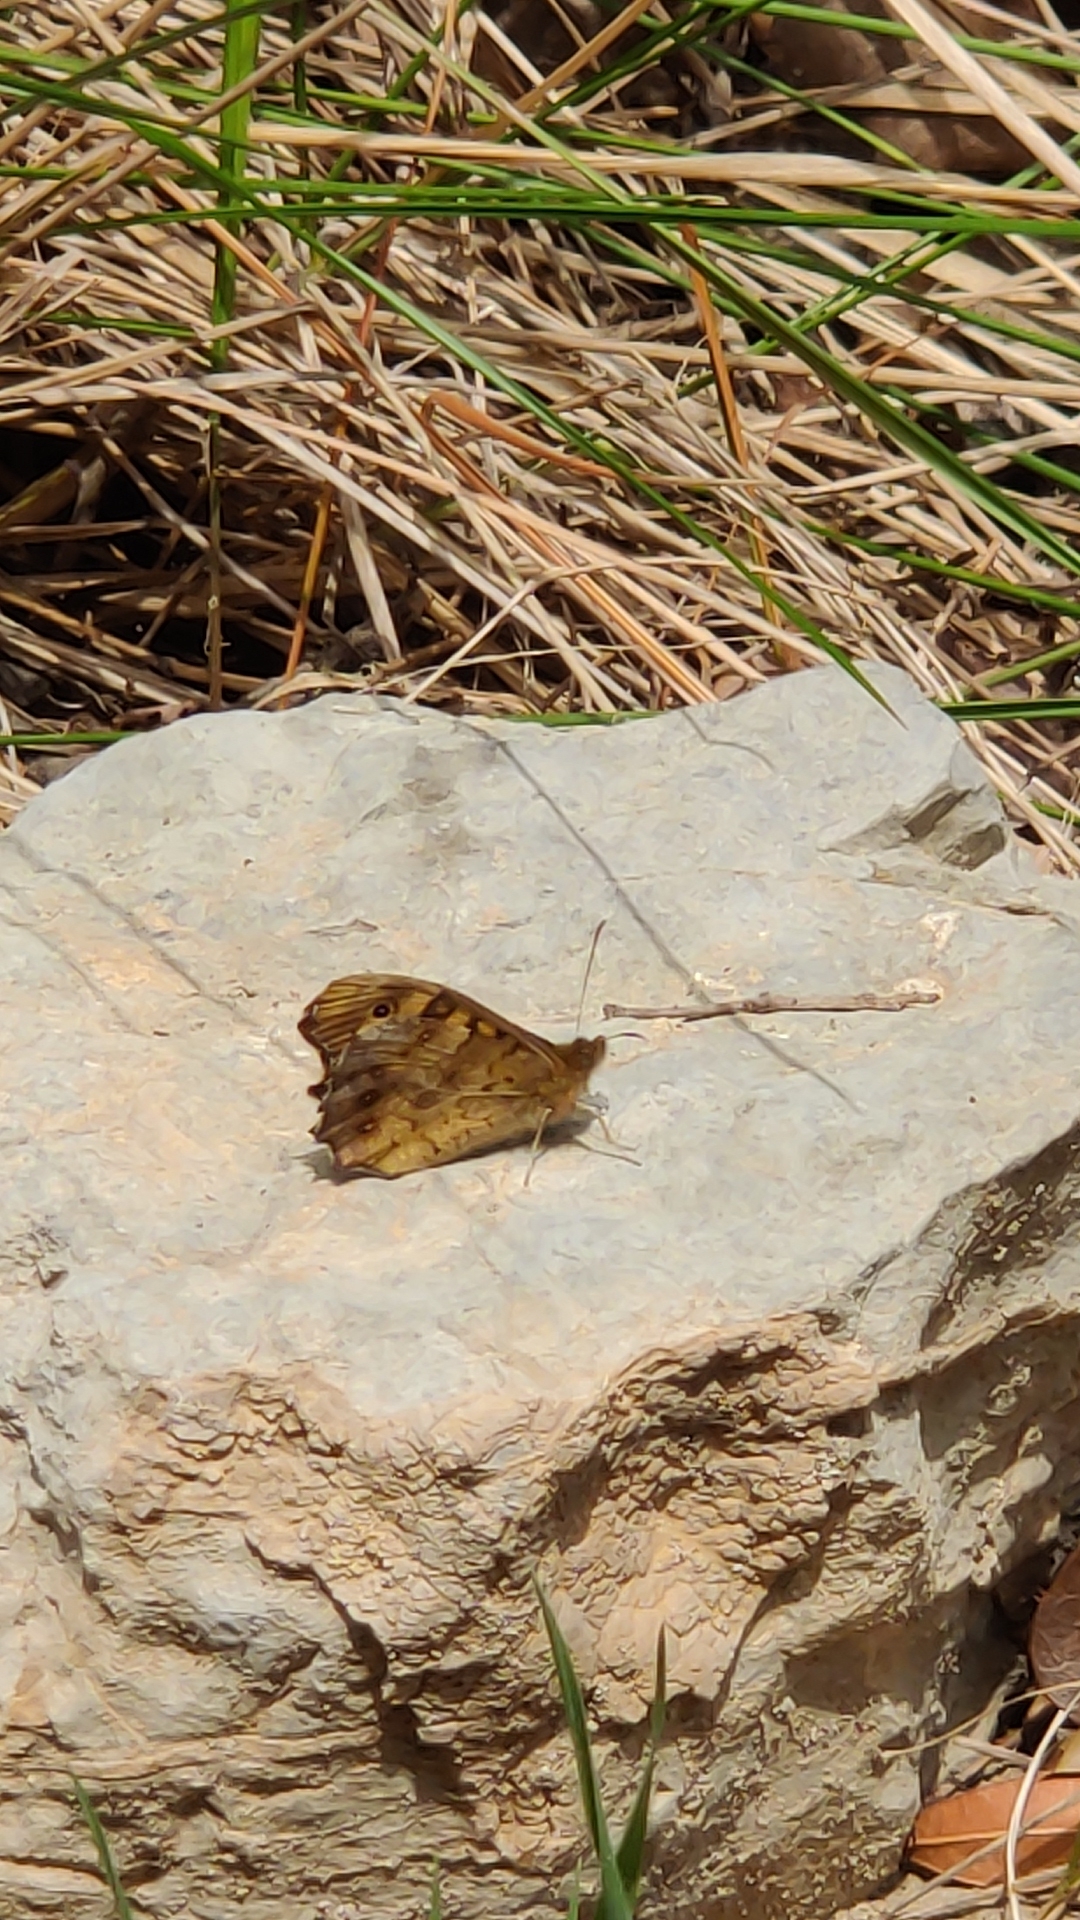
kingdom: Animalia
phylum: Arthropoda
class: Insecta
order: Lepidoptera
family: Nymphalidae
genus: Pararge
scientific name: Pararge aegeria
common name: Speckled wood
